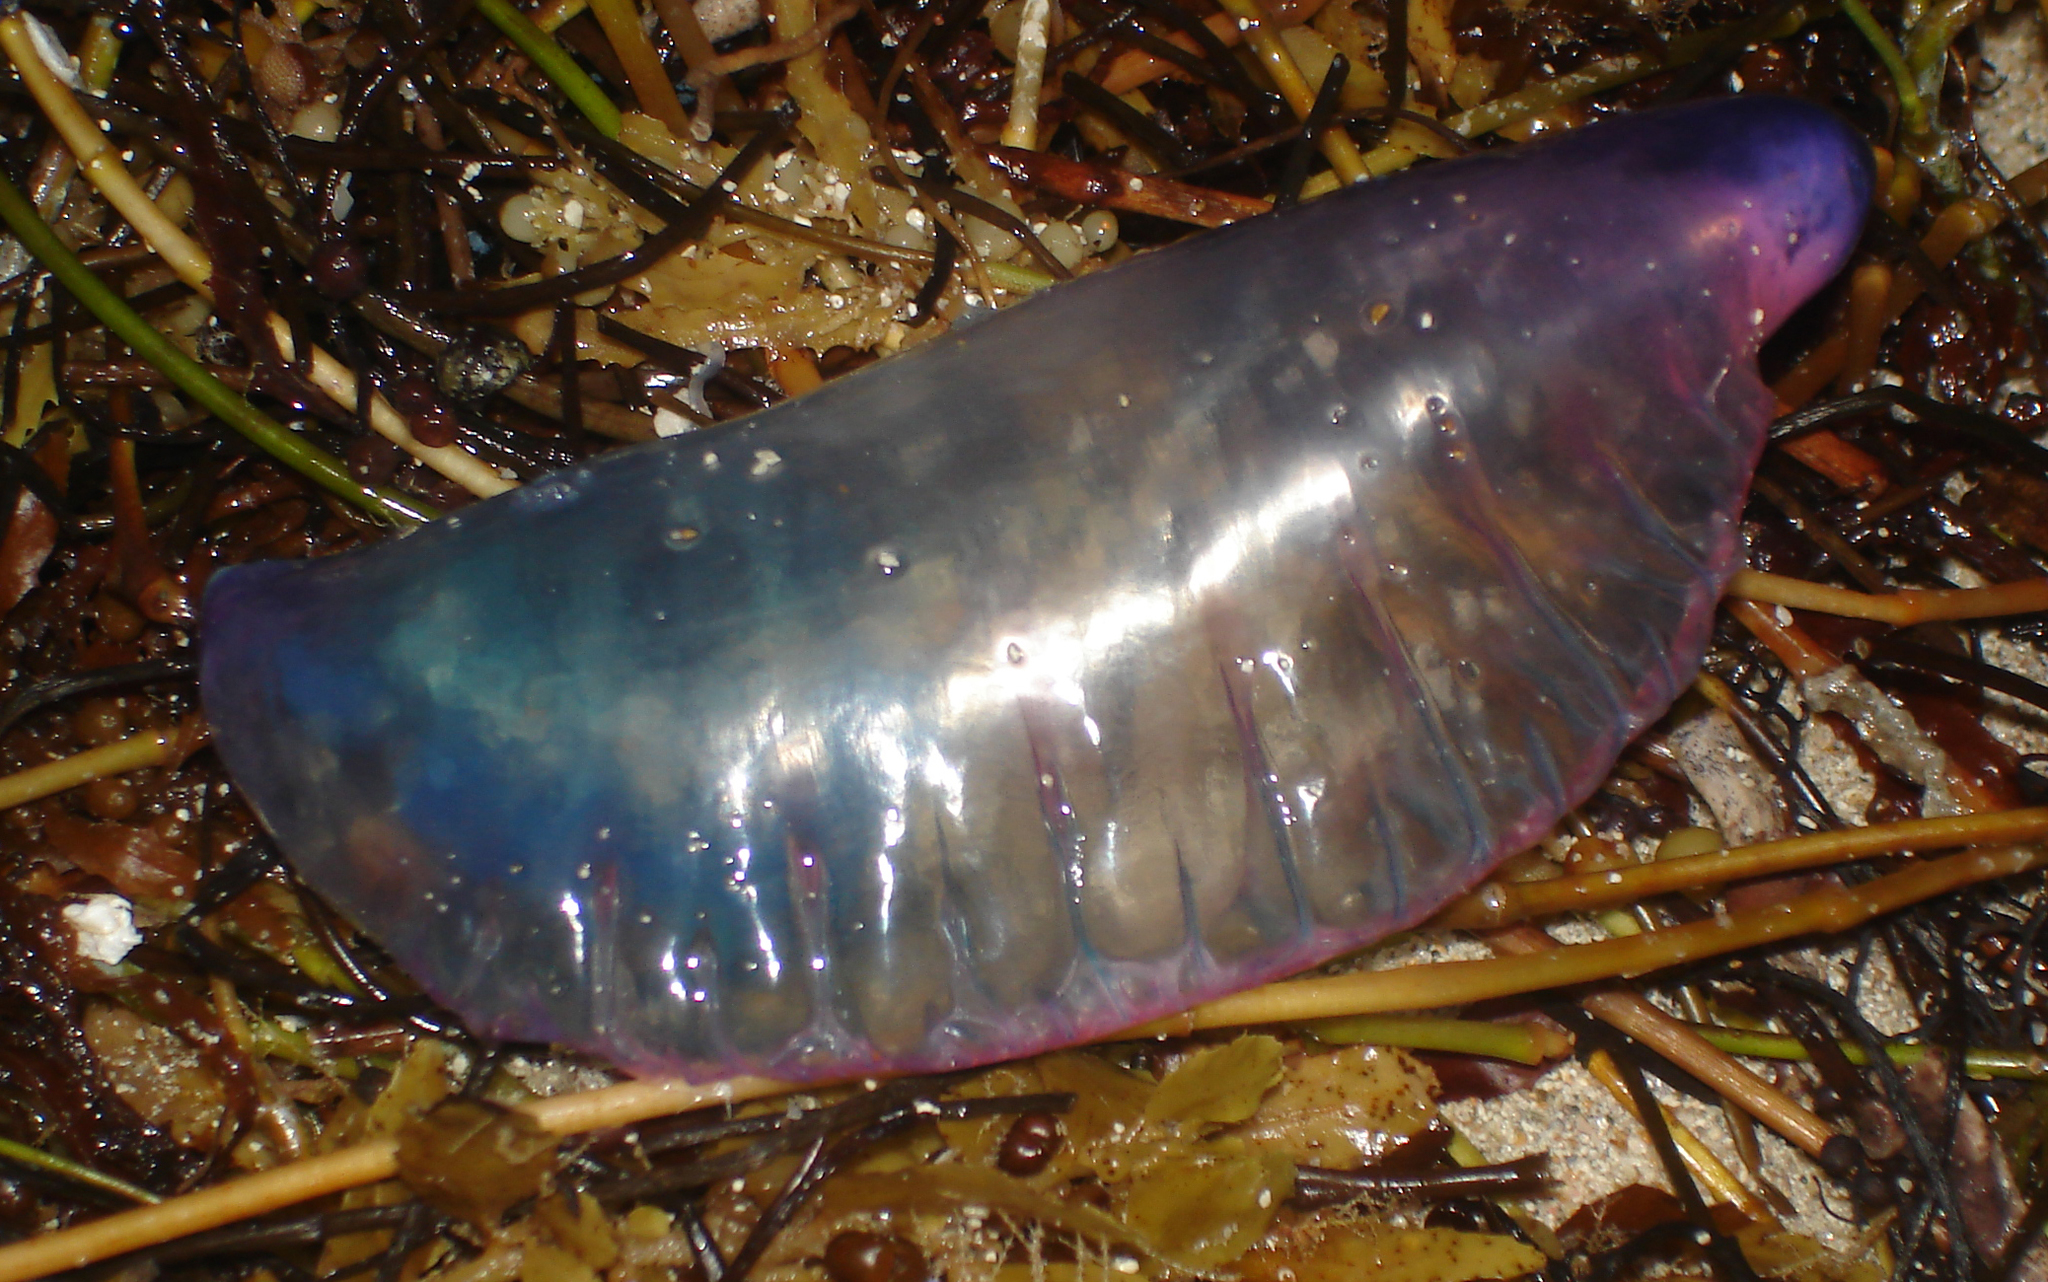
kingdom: Animalia
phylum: Cnidaria
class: Hydrozoa
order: Siphonophorae
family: Physaliidae
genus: Physalia
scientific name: Physalia physalis
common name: Portuguese man-of-war
